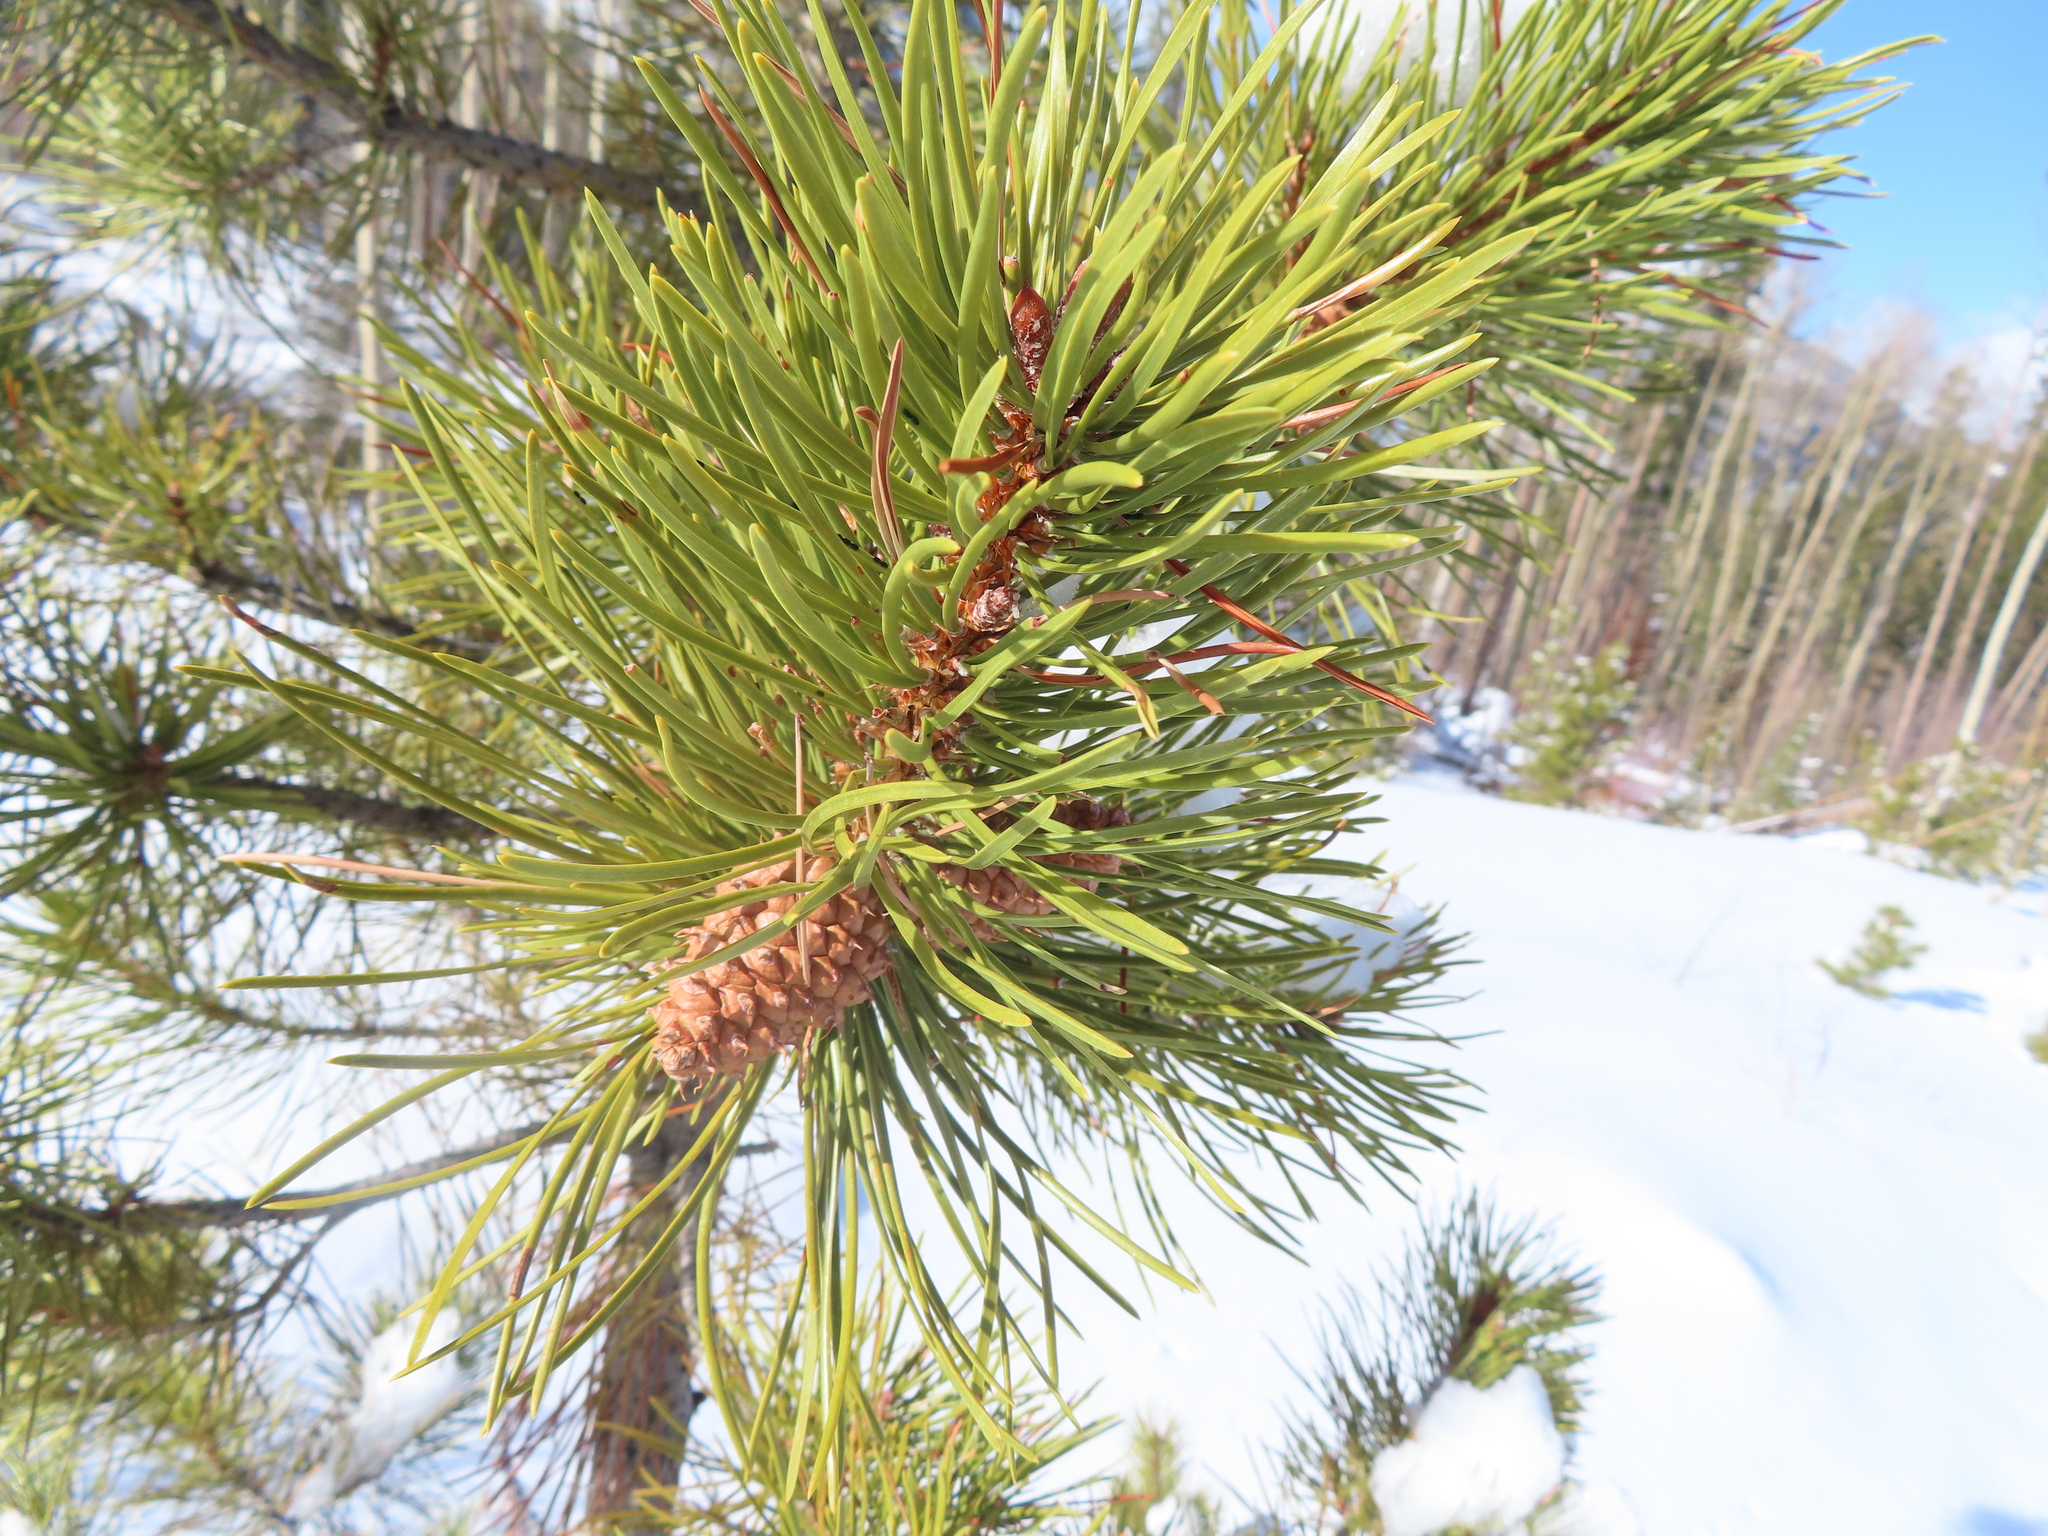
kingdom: Plantae
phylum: Tracheophyta
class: Pinopsida
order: Pinales
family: Pinaceae
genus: Pinus
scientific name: Pinus contorta
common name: Lodgepole pine
